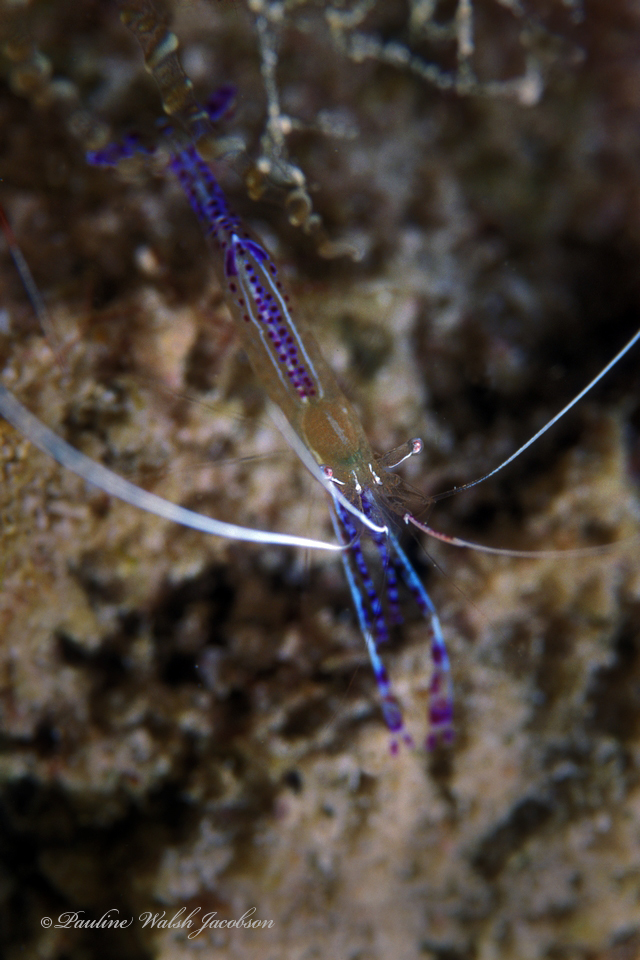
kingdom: Animalia
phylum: Arthropoda
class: Malacostraca
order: Decapoda
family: Palaemonidae
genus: Ancylomenes
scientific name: Ancylomenes pedersoni
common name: Pederson's cleaning shrimp
